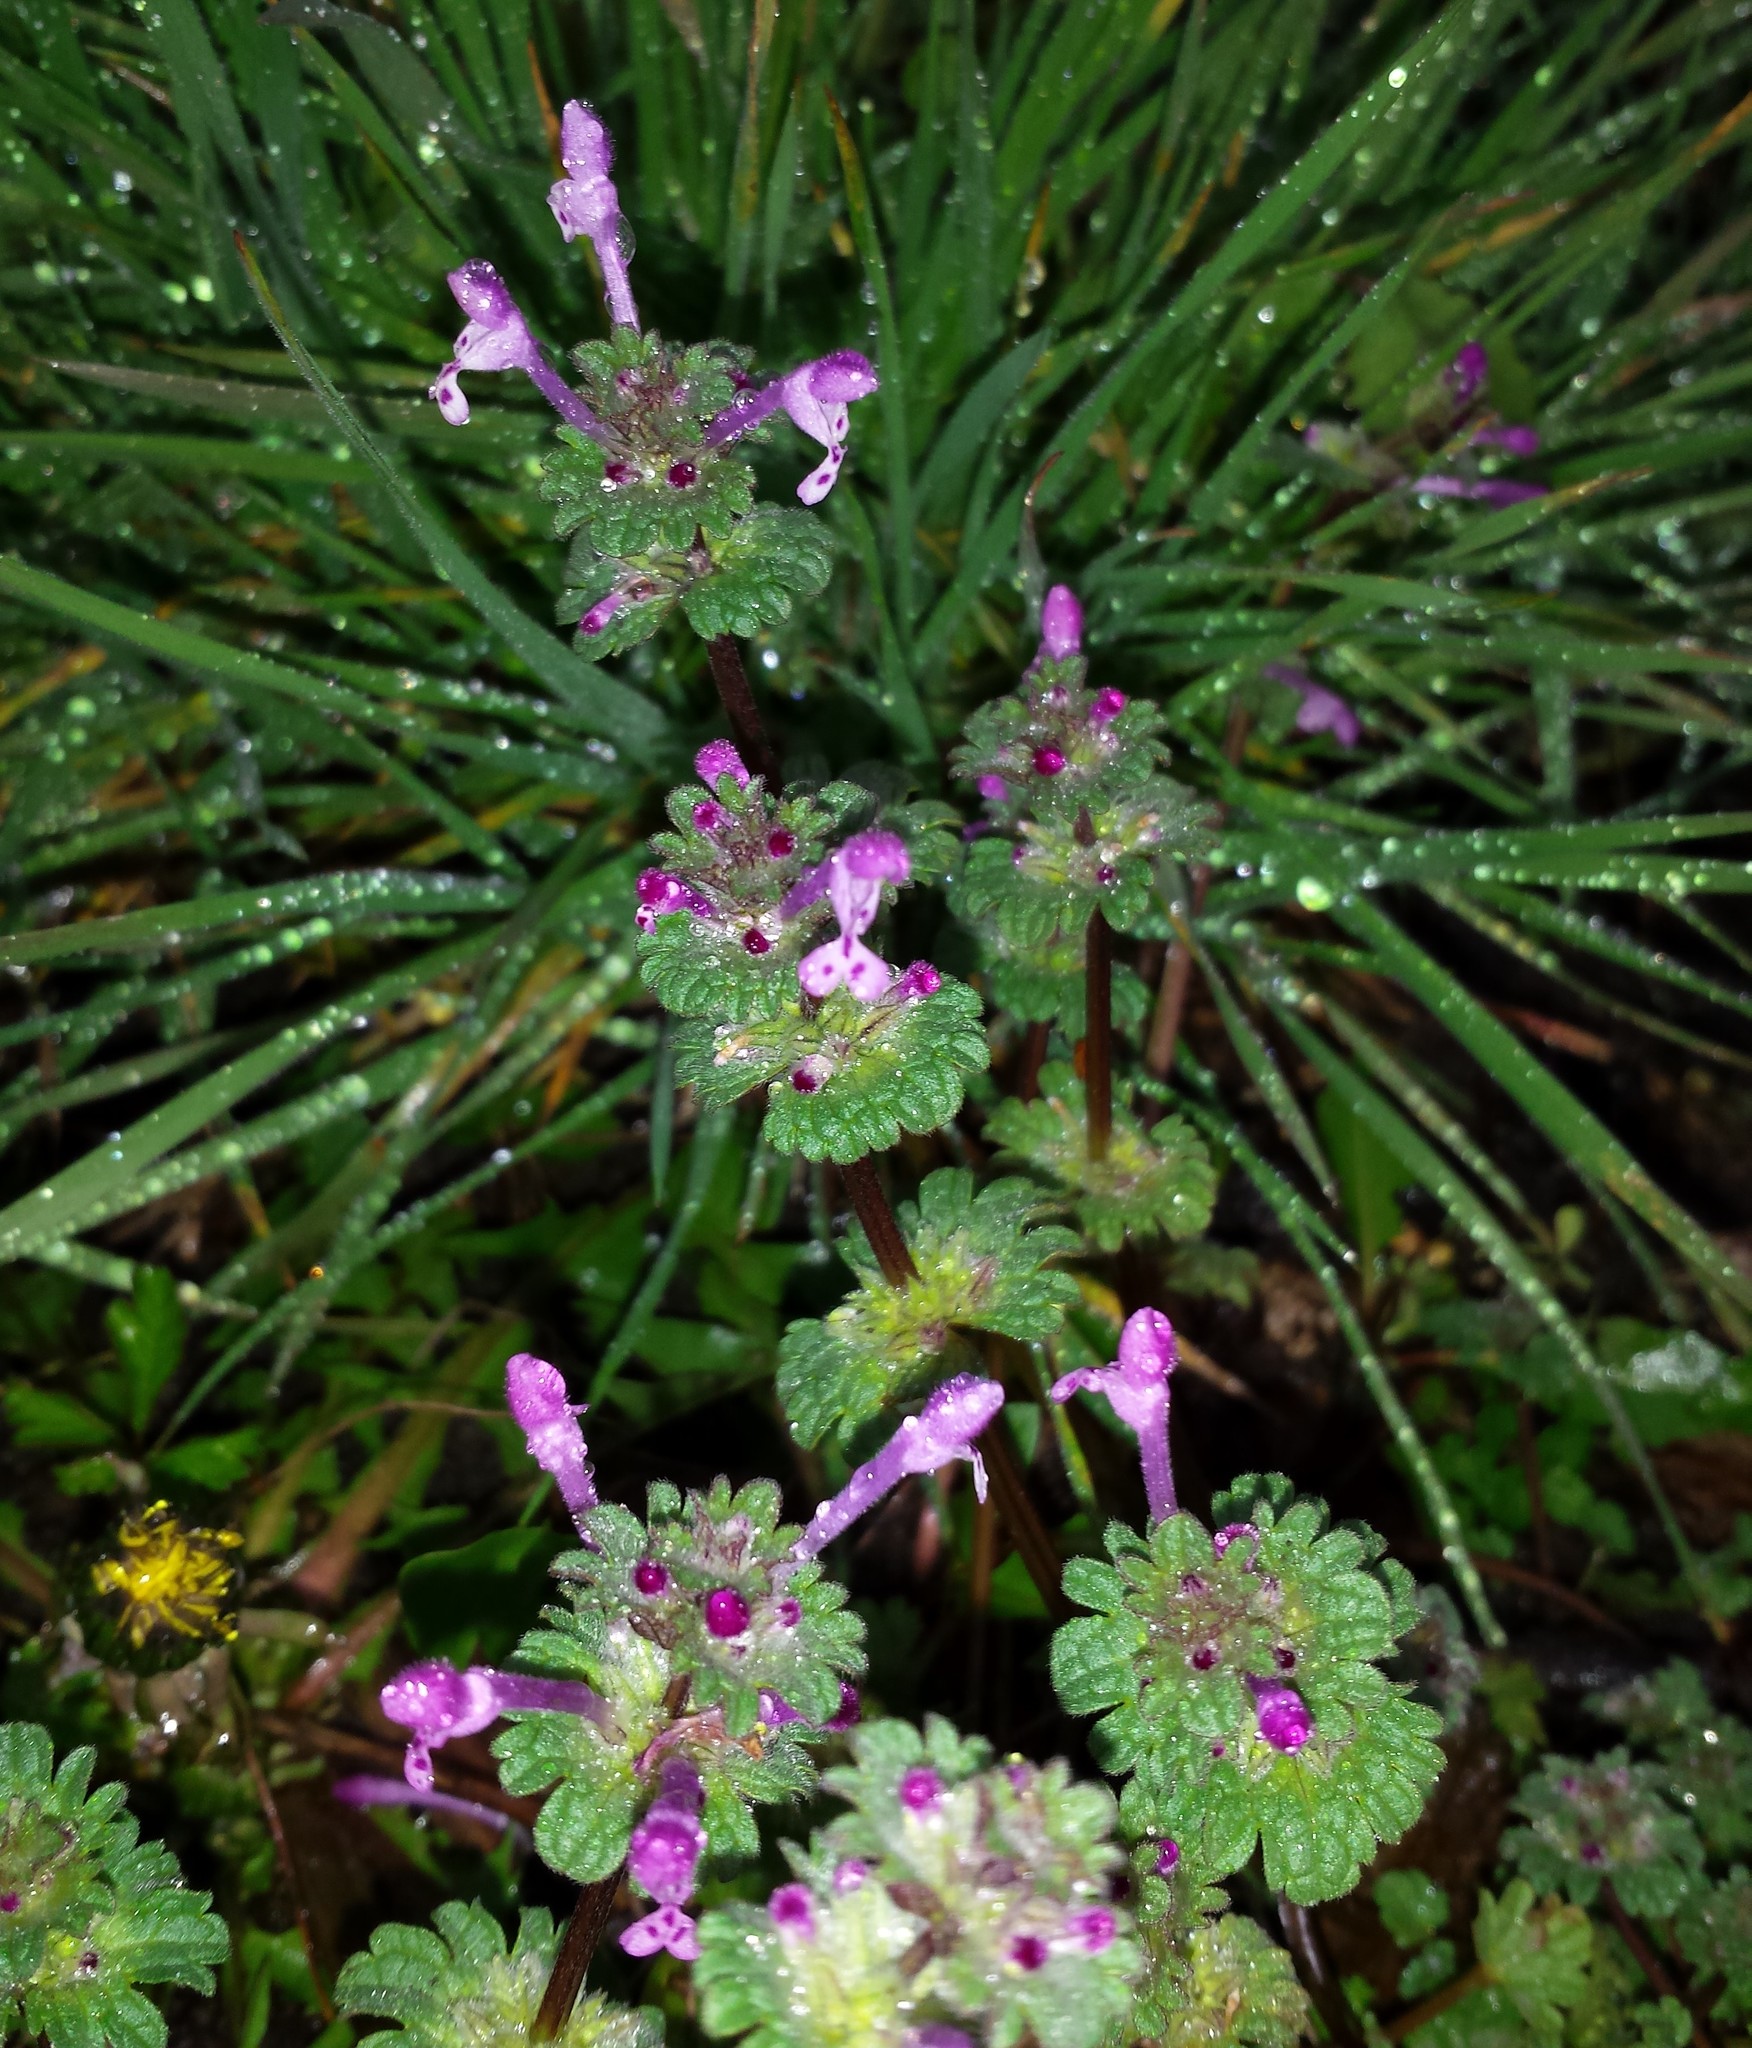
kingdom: Plantae
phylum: Tracheophyta
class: Magnoliopsida
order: Lamiales
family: Lamiaceae
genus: Lamium
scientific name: Lamium amplexicaule
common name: Henbit dead-nettle
